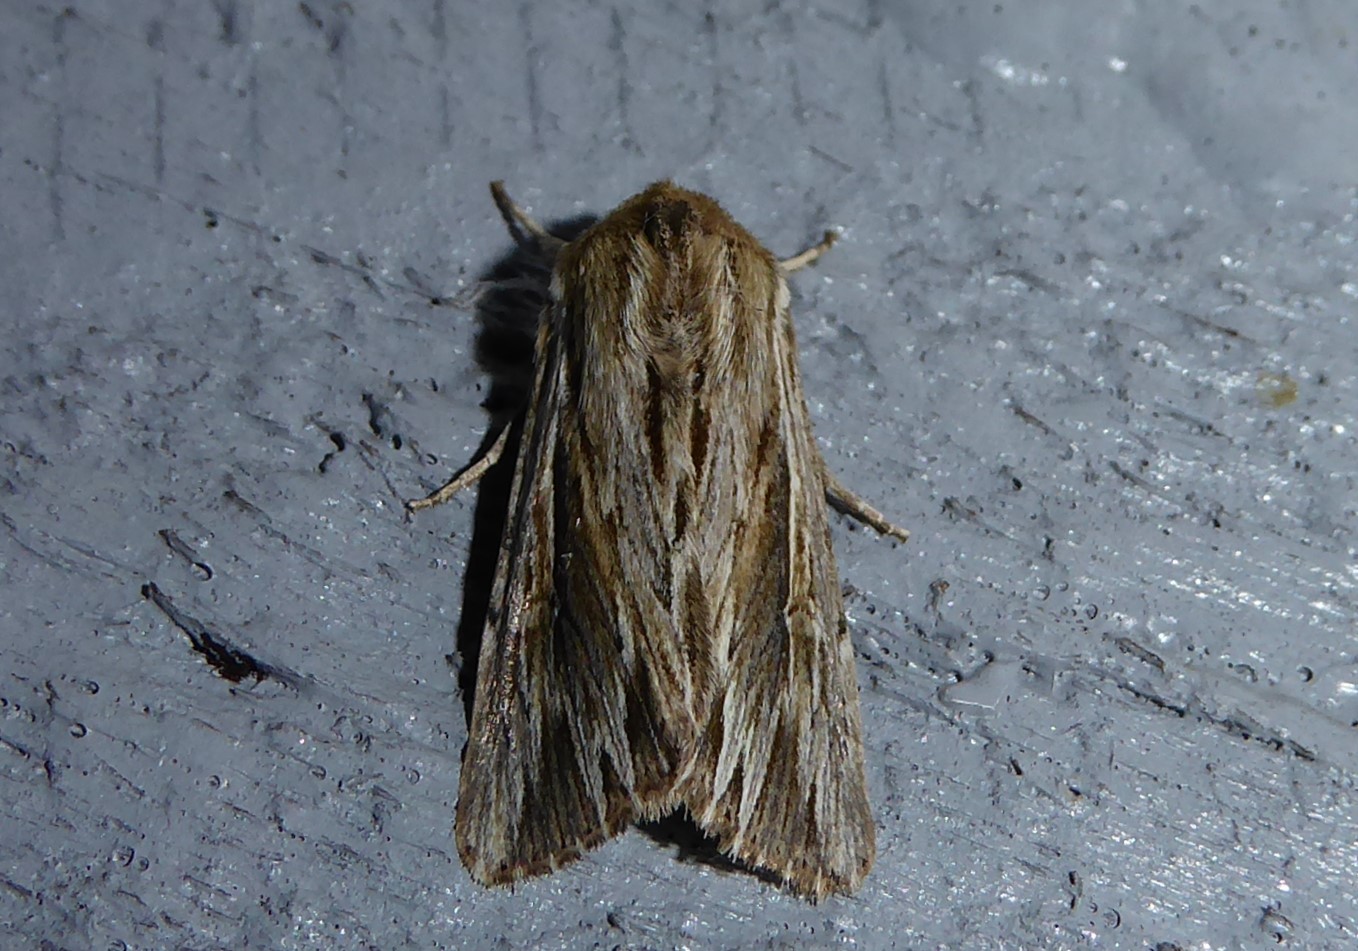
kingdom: Animalia
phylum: Arthropoda
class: Insecta
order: Lepidoptera
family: Noctuidae
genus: Persectania
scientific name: Persectania aversa
